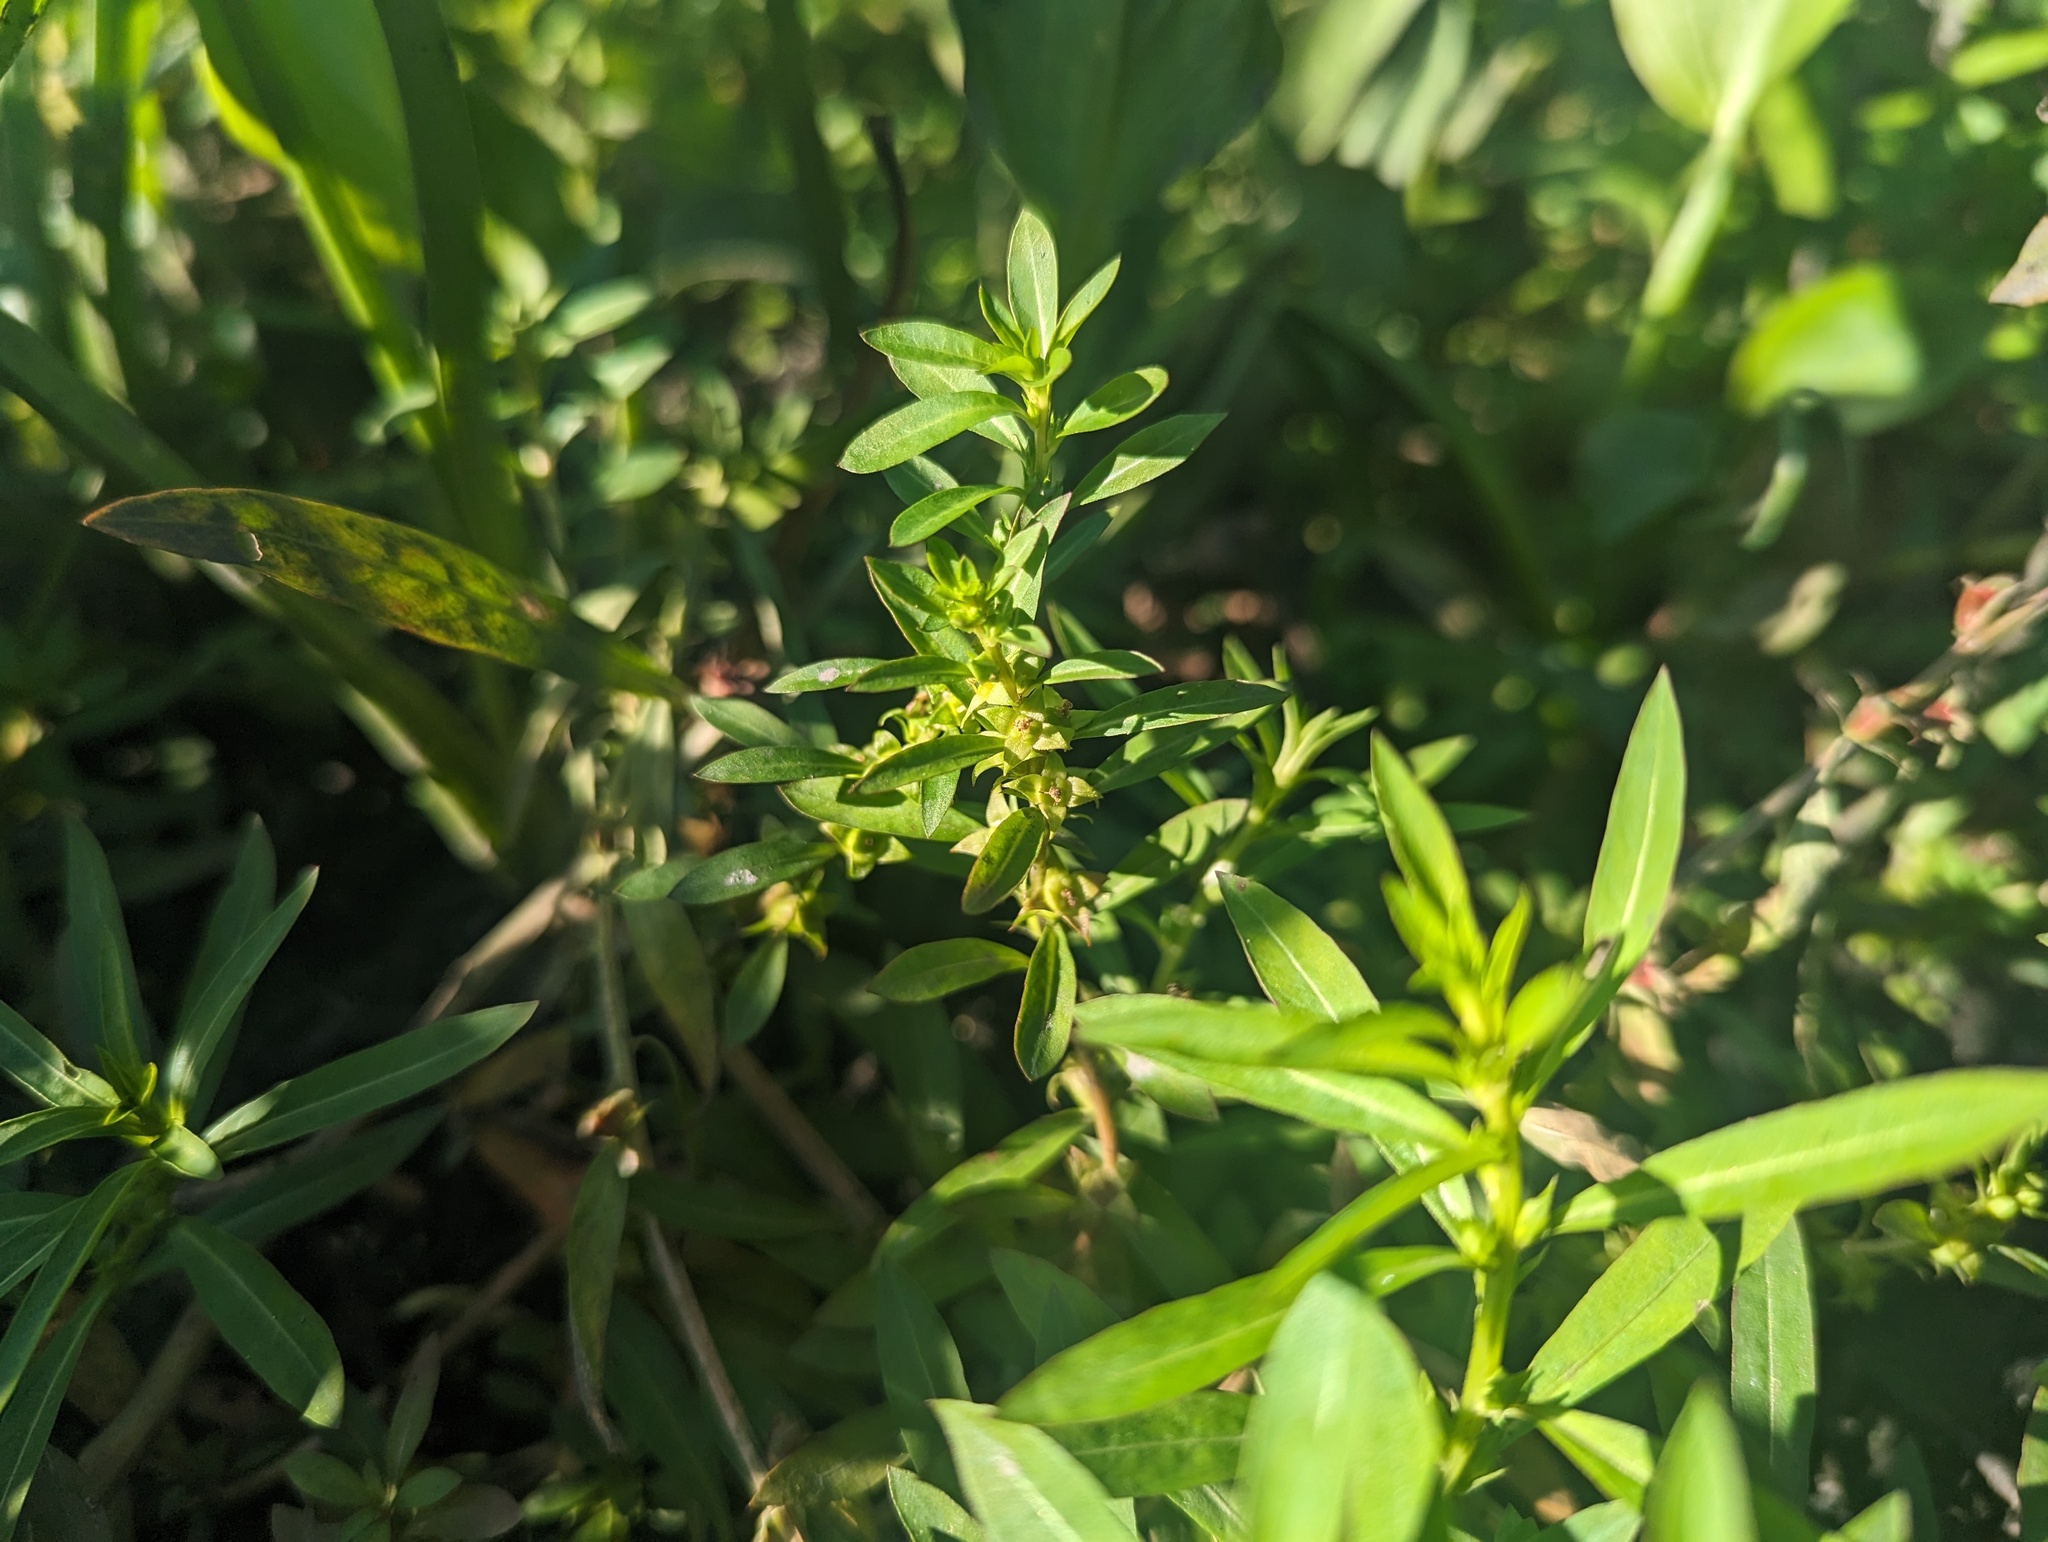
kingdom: Plantae
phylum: Tracheophyta
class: Magnoliopsida
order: Myrtales
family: Onagraceae
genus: Ludwigia
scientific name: Ludwigia polycarpa
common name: False loosestrife
